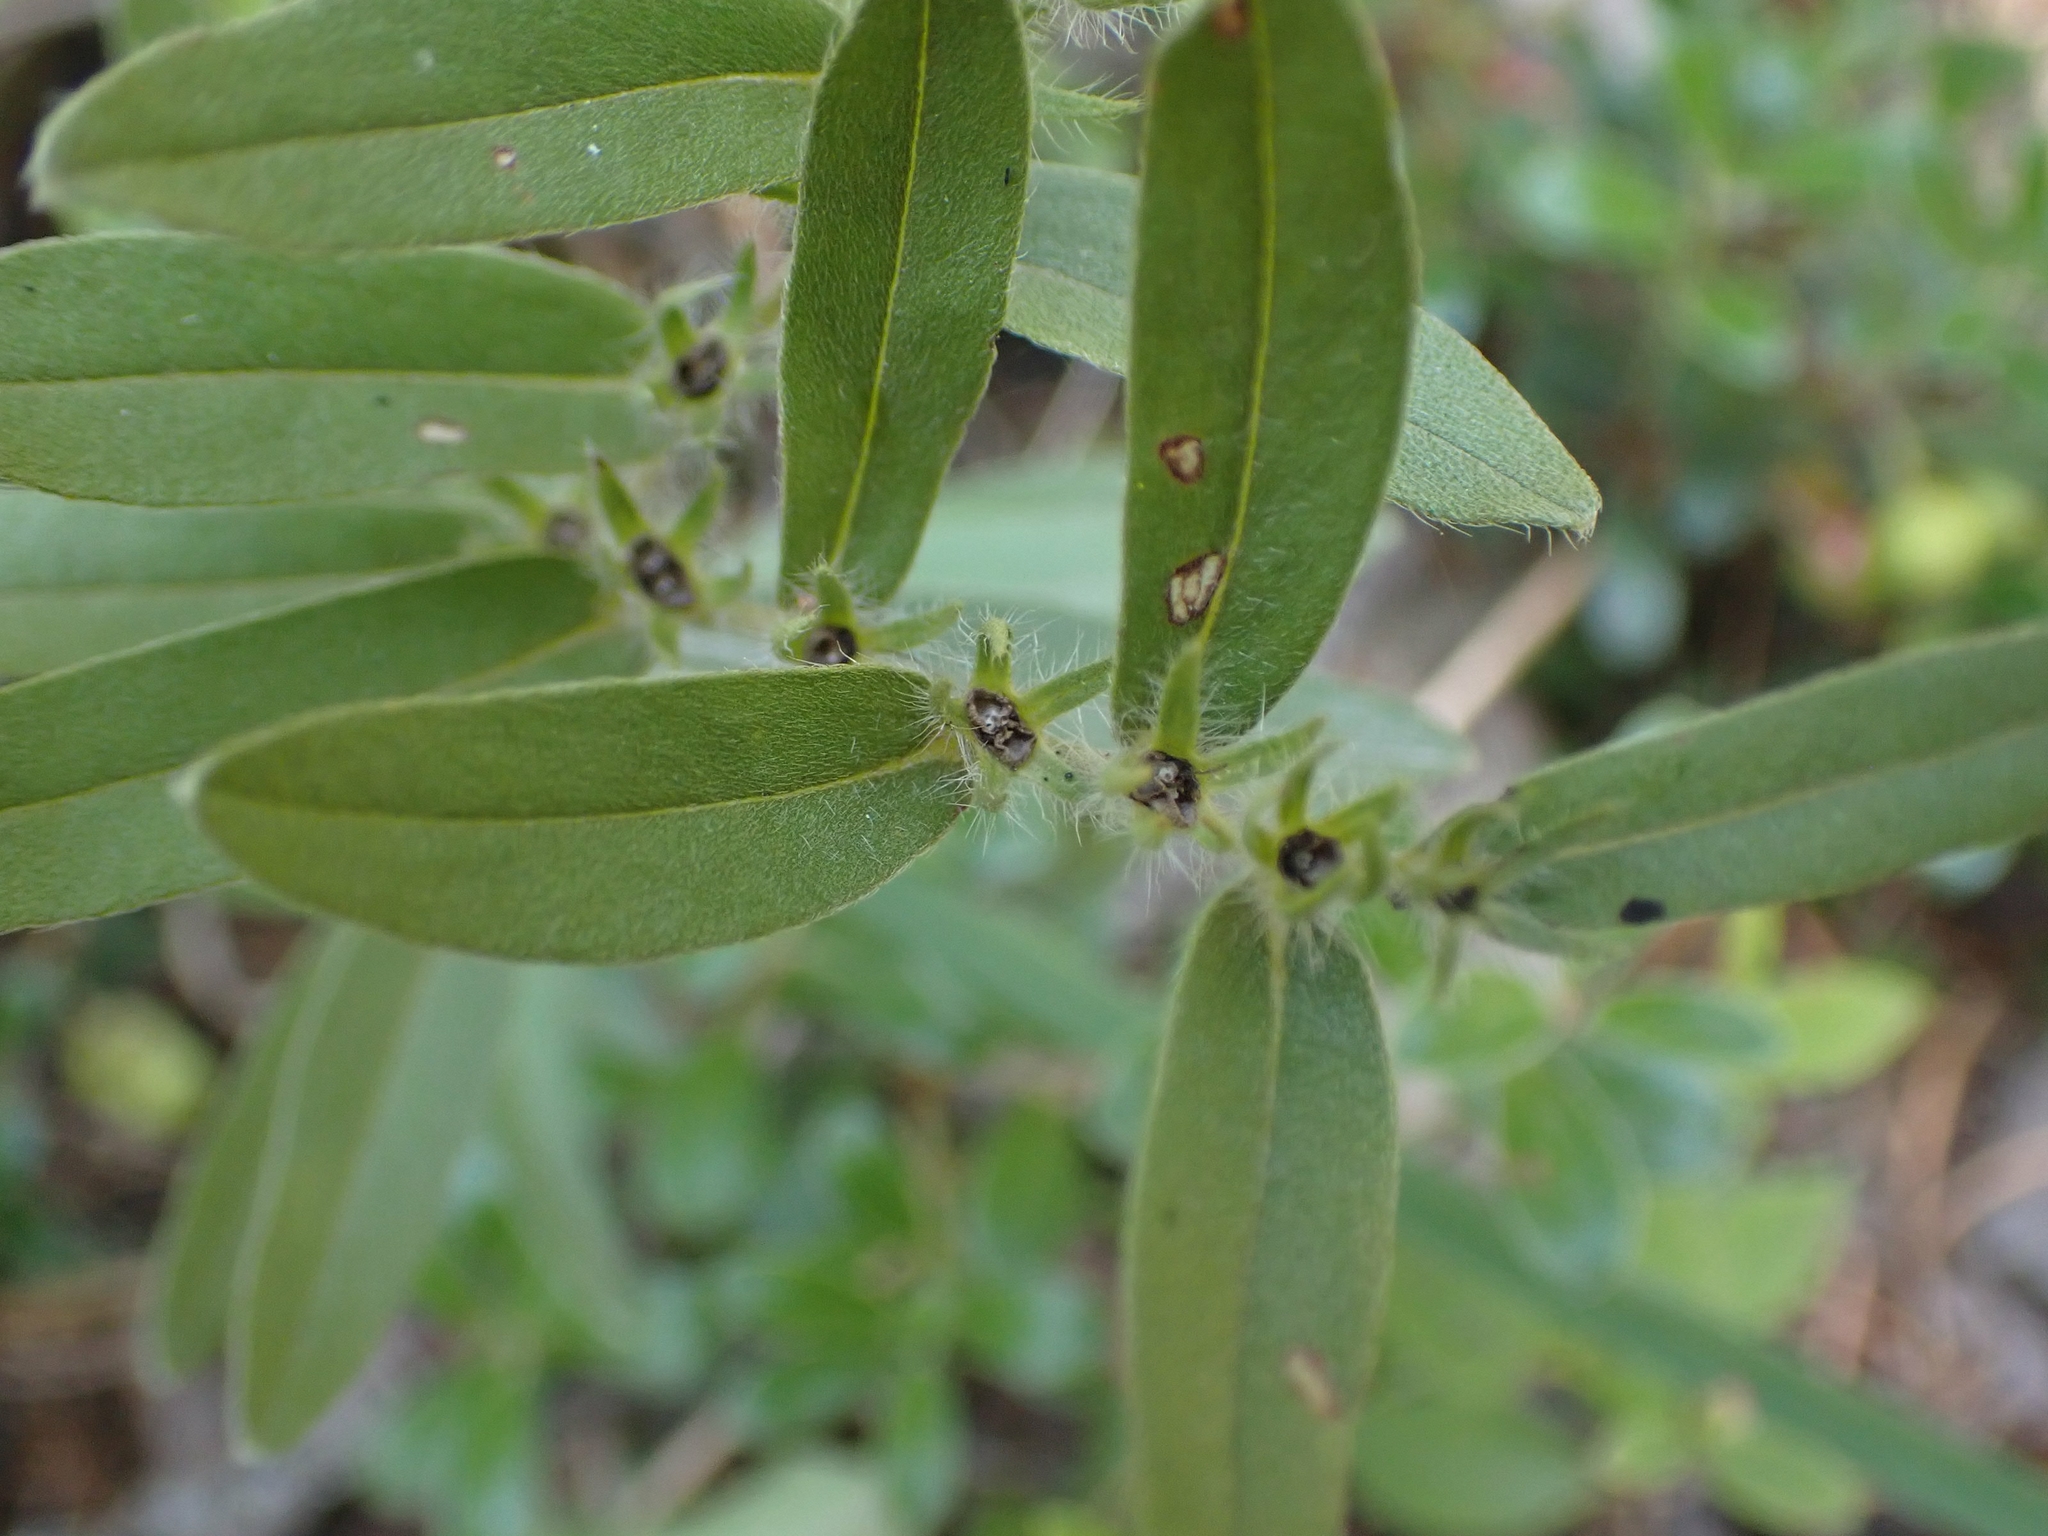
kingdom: Plantae
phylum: Tracheophyta
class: Magnoliopsida
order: Boraginales
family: Boraginaceae
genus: Lithospermum
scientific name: Lithospermum canescens
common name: Hoary puccoon
